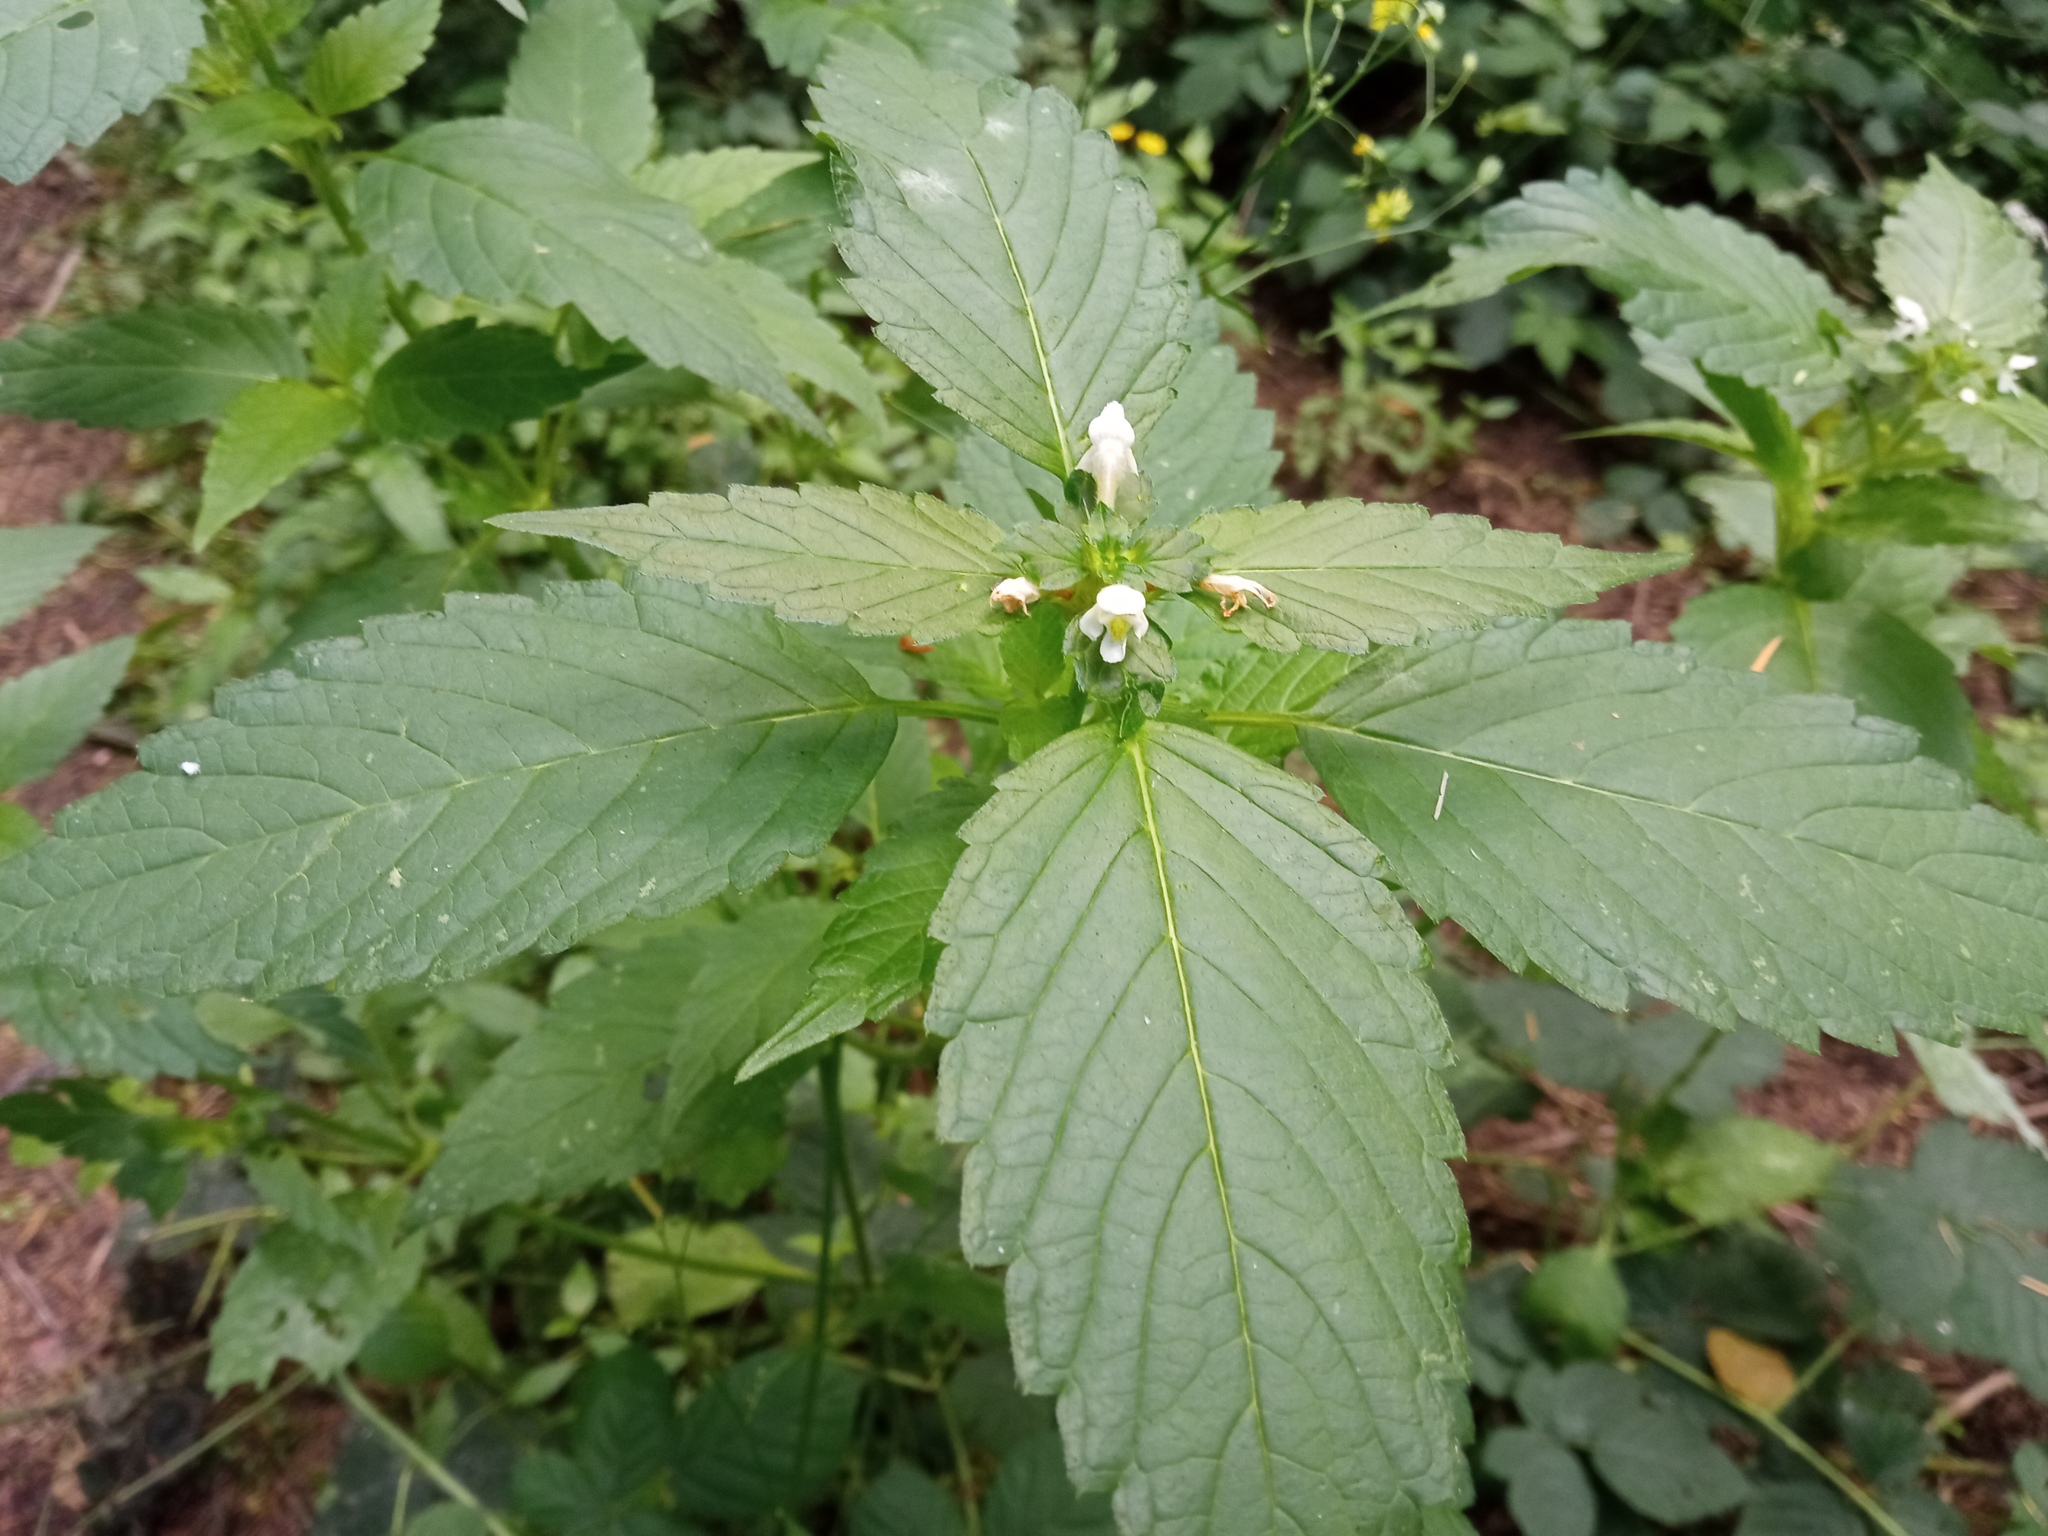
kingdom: Plantae
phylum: Tracheophyta
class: Magnoliopsida
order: Lamiales
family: Lamiaceae
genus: Galeopsis
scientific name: Galeopsis tetrahit
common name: Common hemp-nettle
